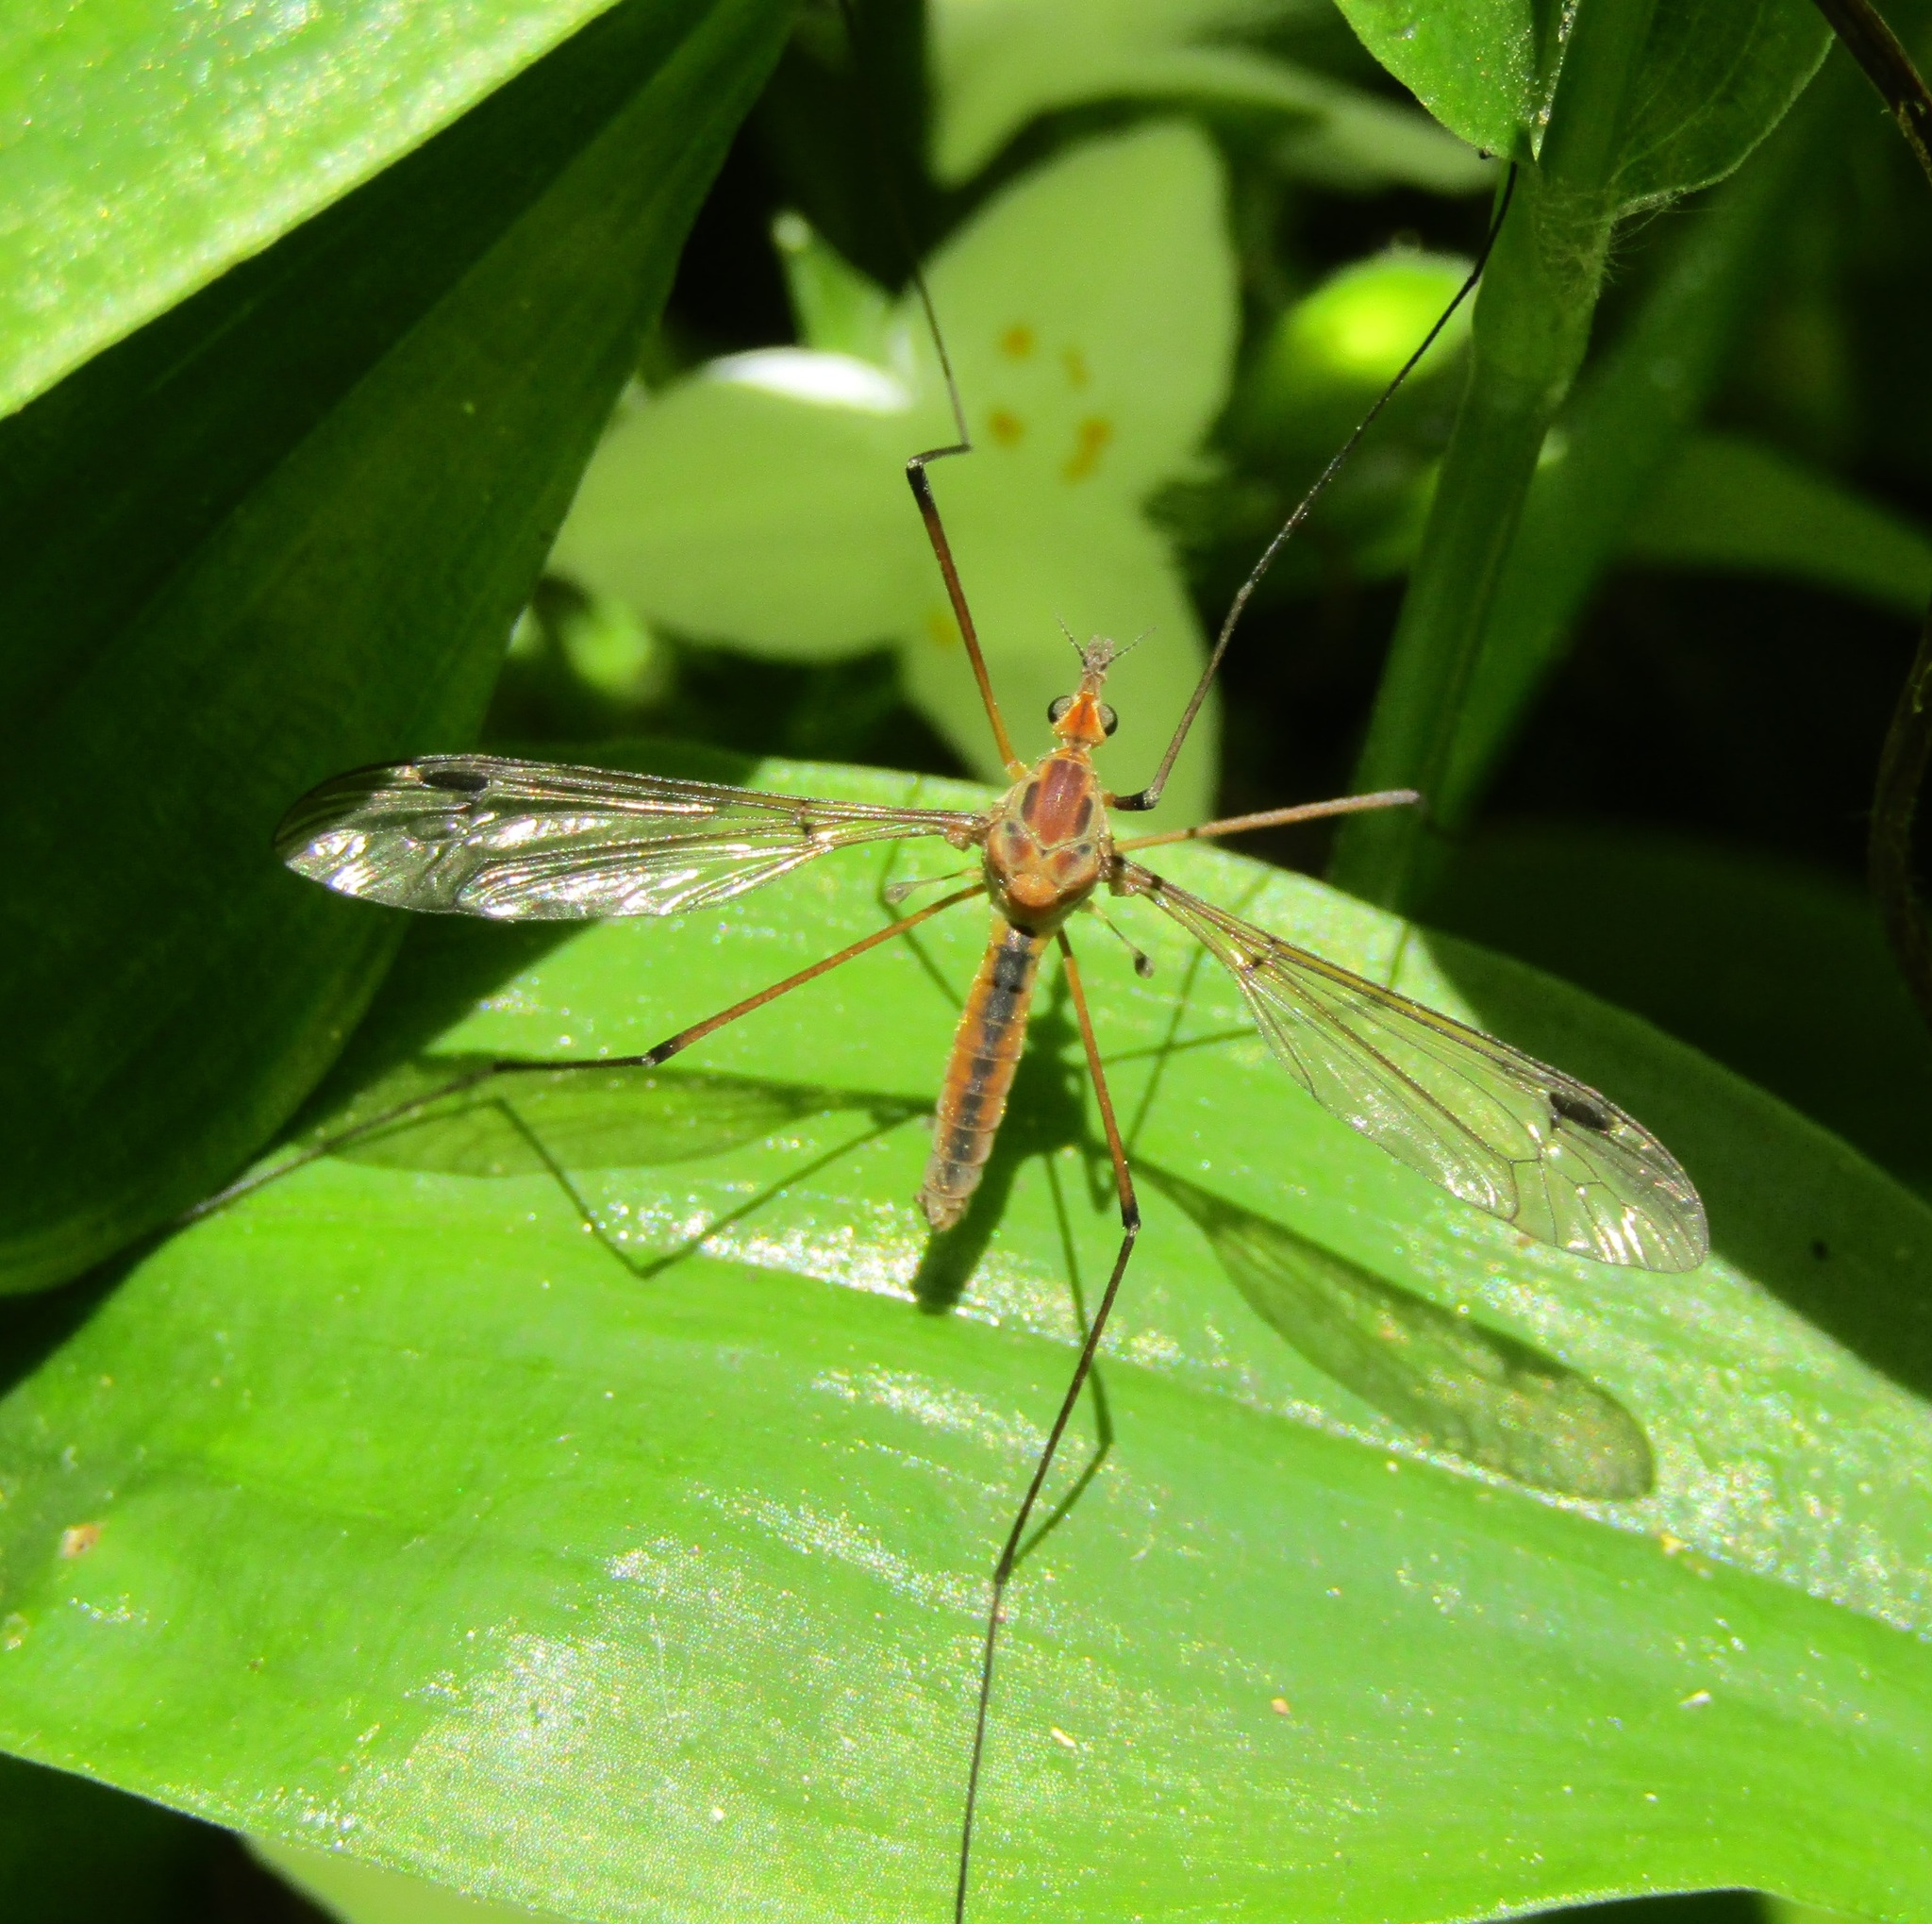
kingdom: Animalia
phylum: Arthropoda
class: Insecta
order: Diptera
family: Tipulidae
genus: Leptotarsus
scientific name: Leptotarsus dichroithorax
